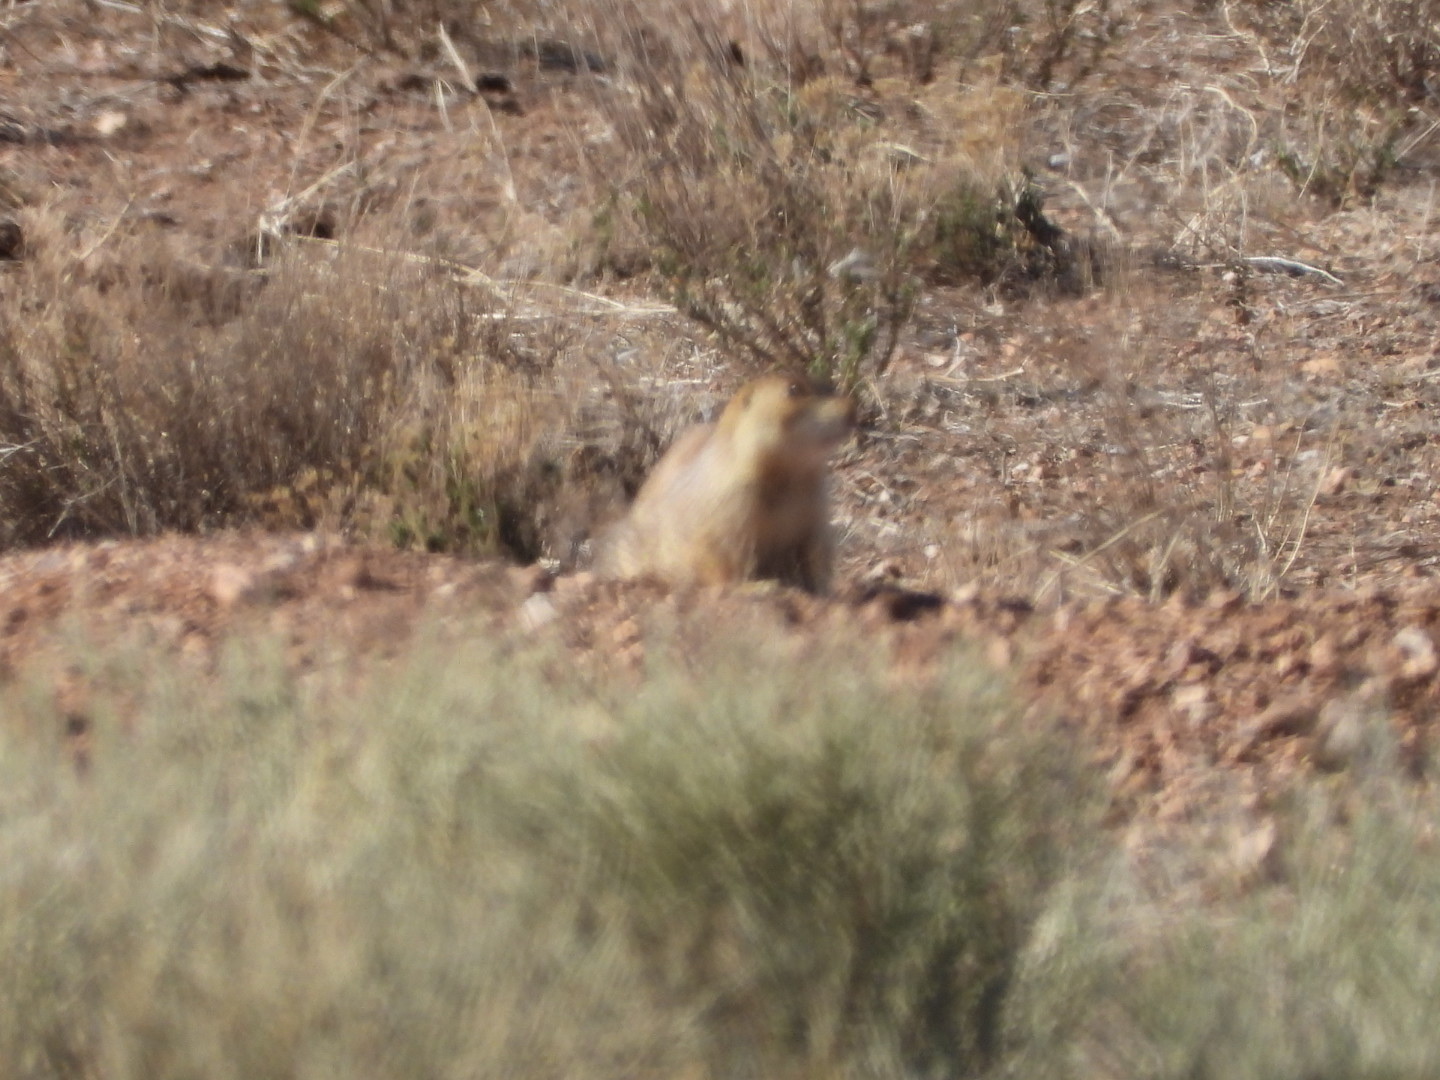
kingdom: Animalia
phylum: Chordata
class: Mammalia
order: Rodentia
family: Sciuridae
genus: Cynomys
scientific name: Cynomys gunnisoni
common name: Gunnison's prairie dog
